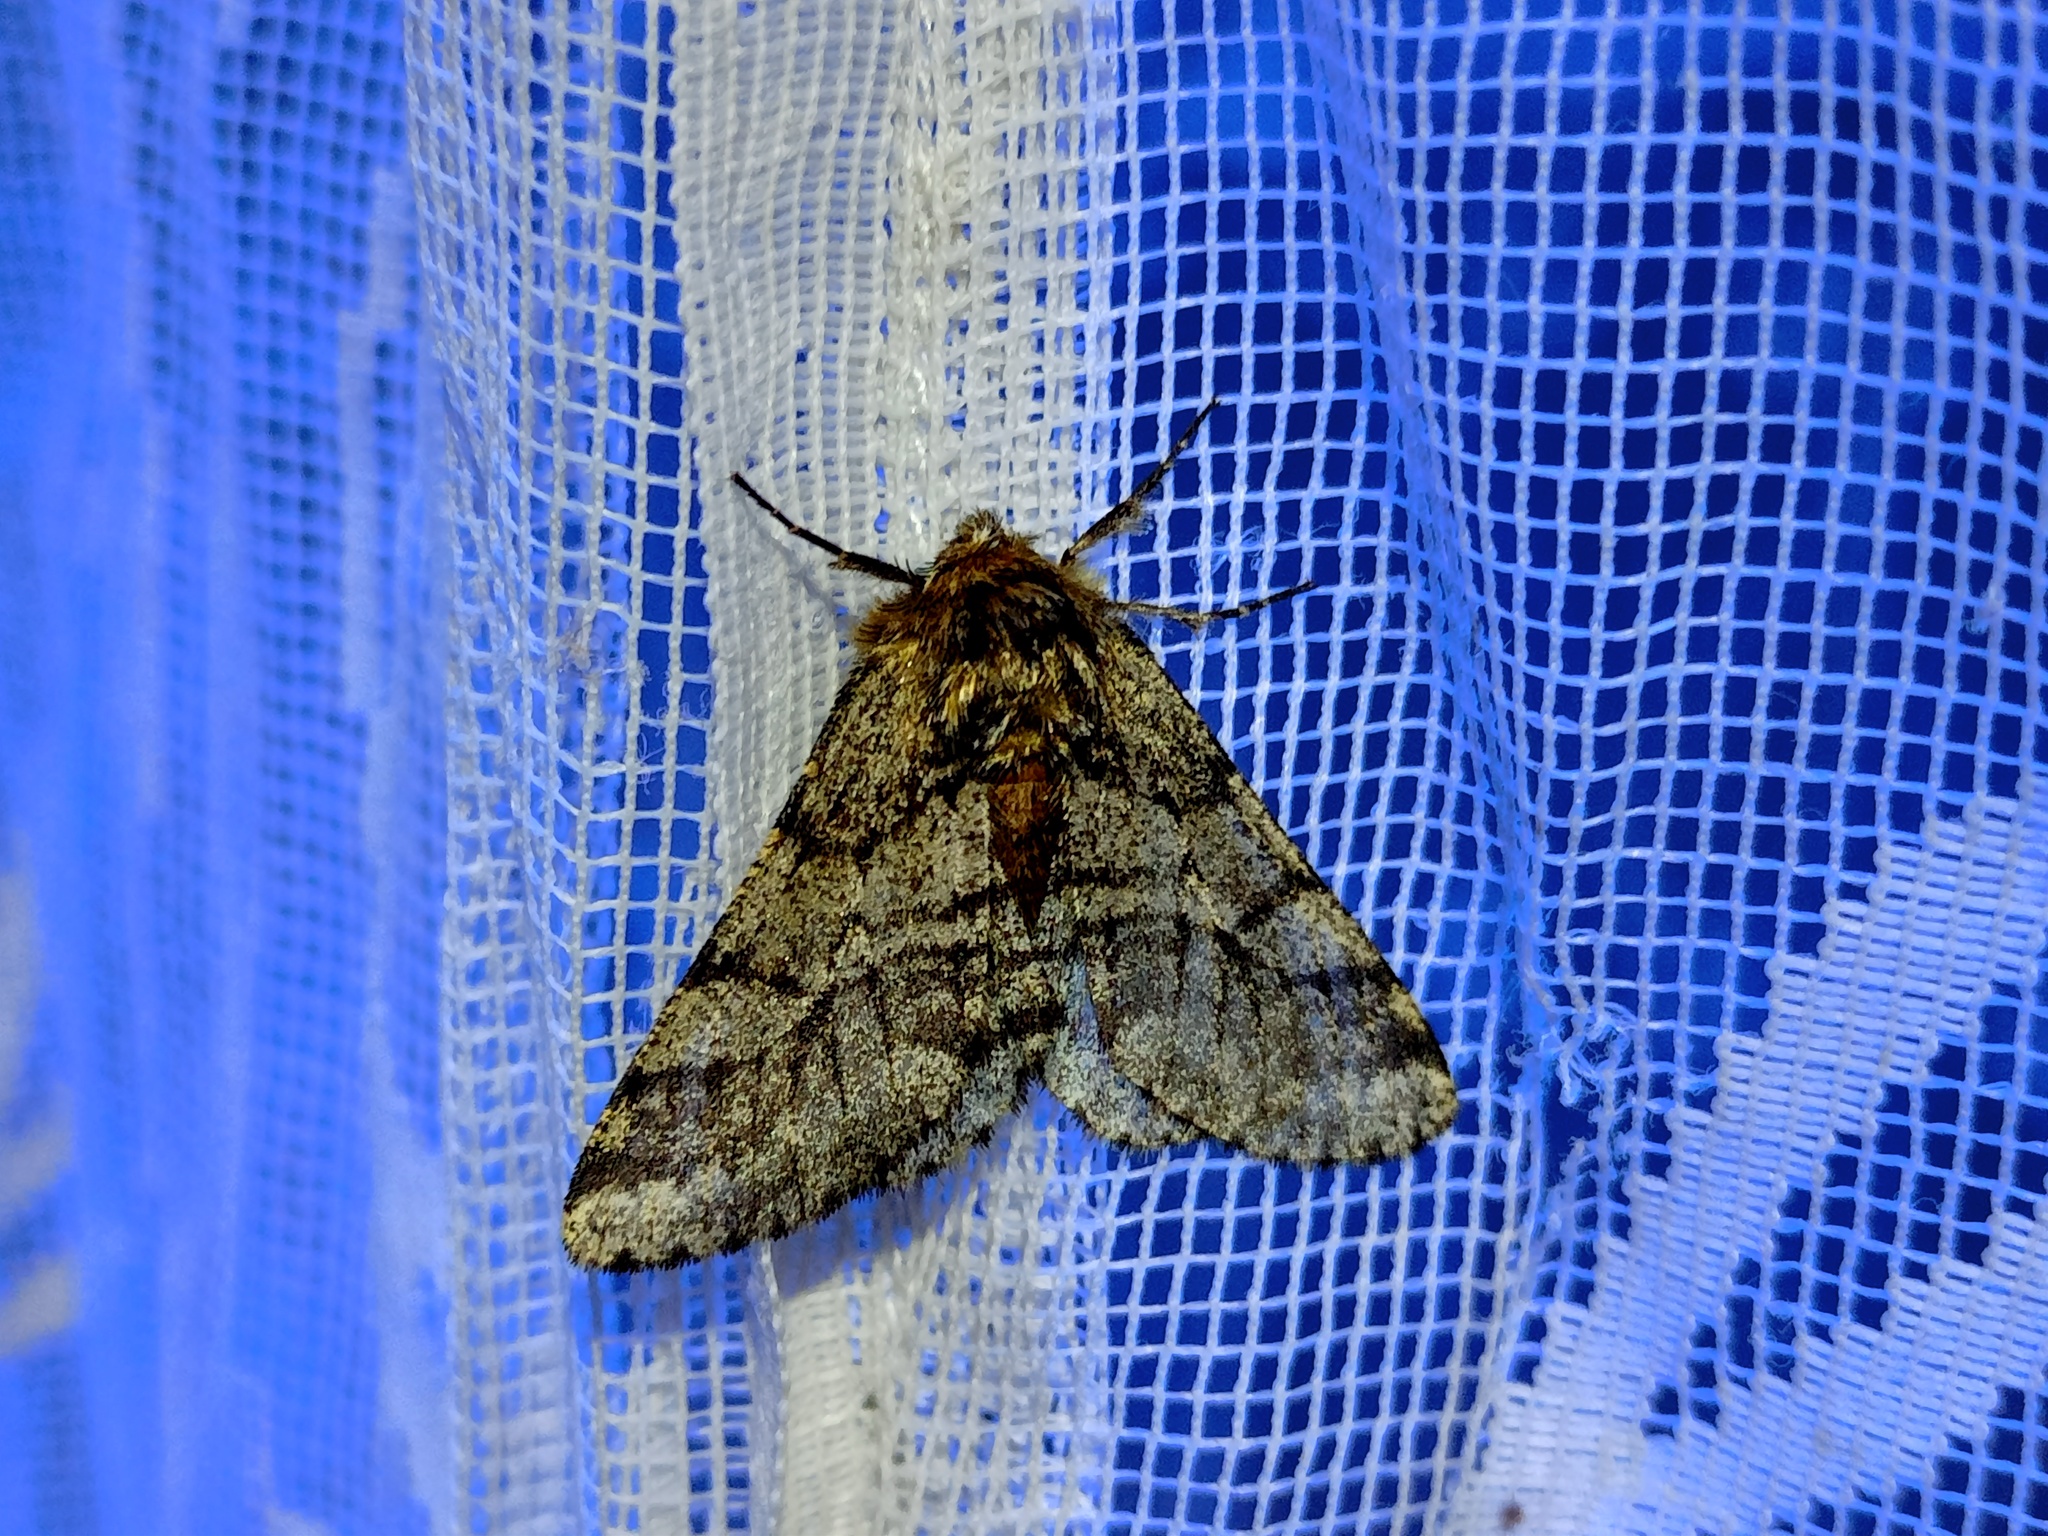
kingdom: Animalia
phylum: Arthropoda
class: Insecta
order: Lepidoptera
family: Geometridae
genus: Lycia
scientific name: Lycia hirtaria
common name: Brindled beauty
